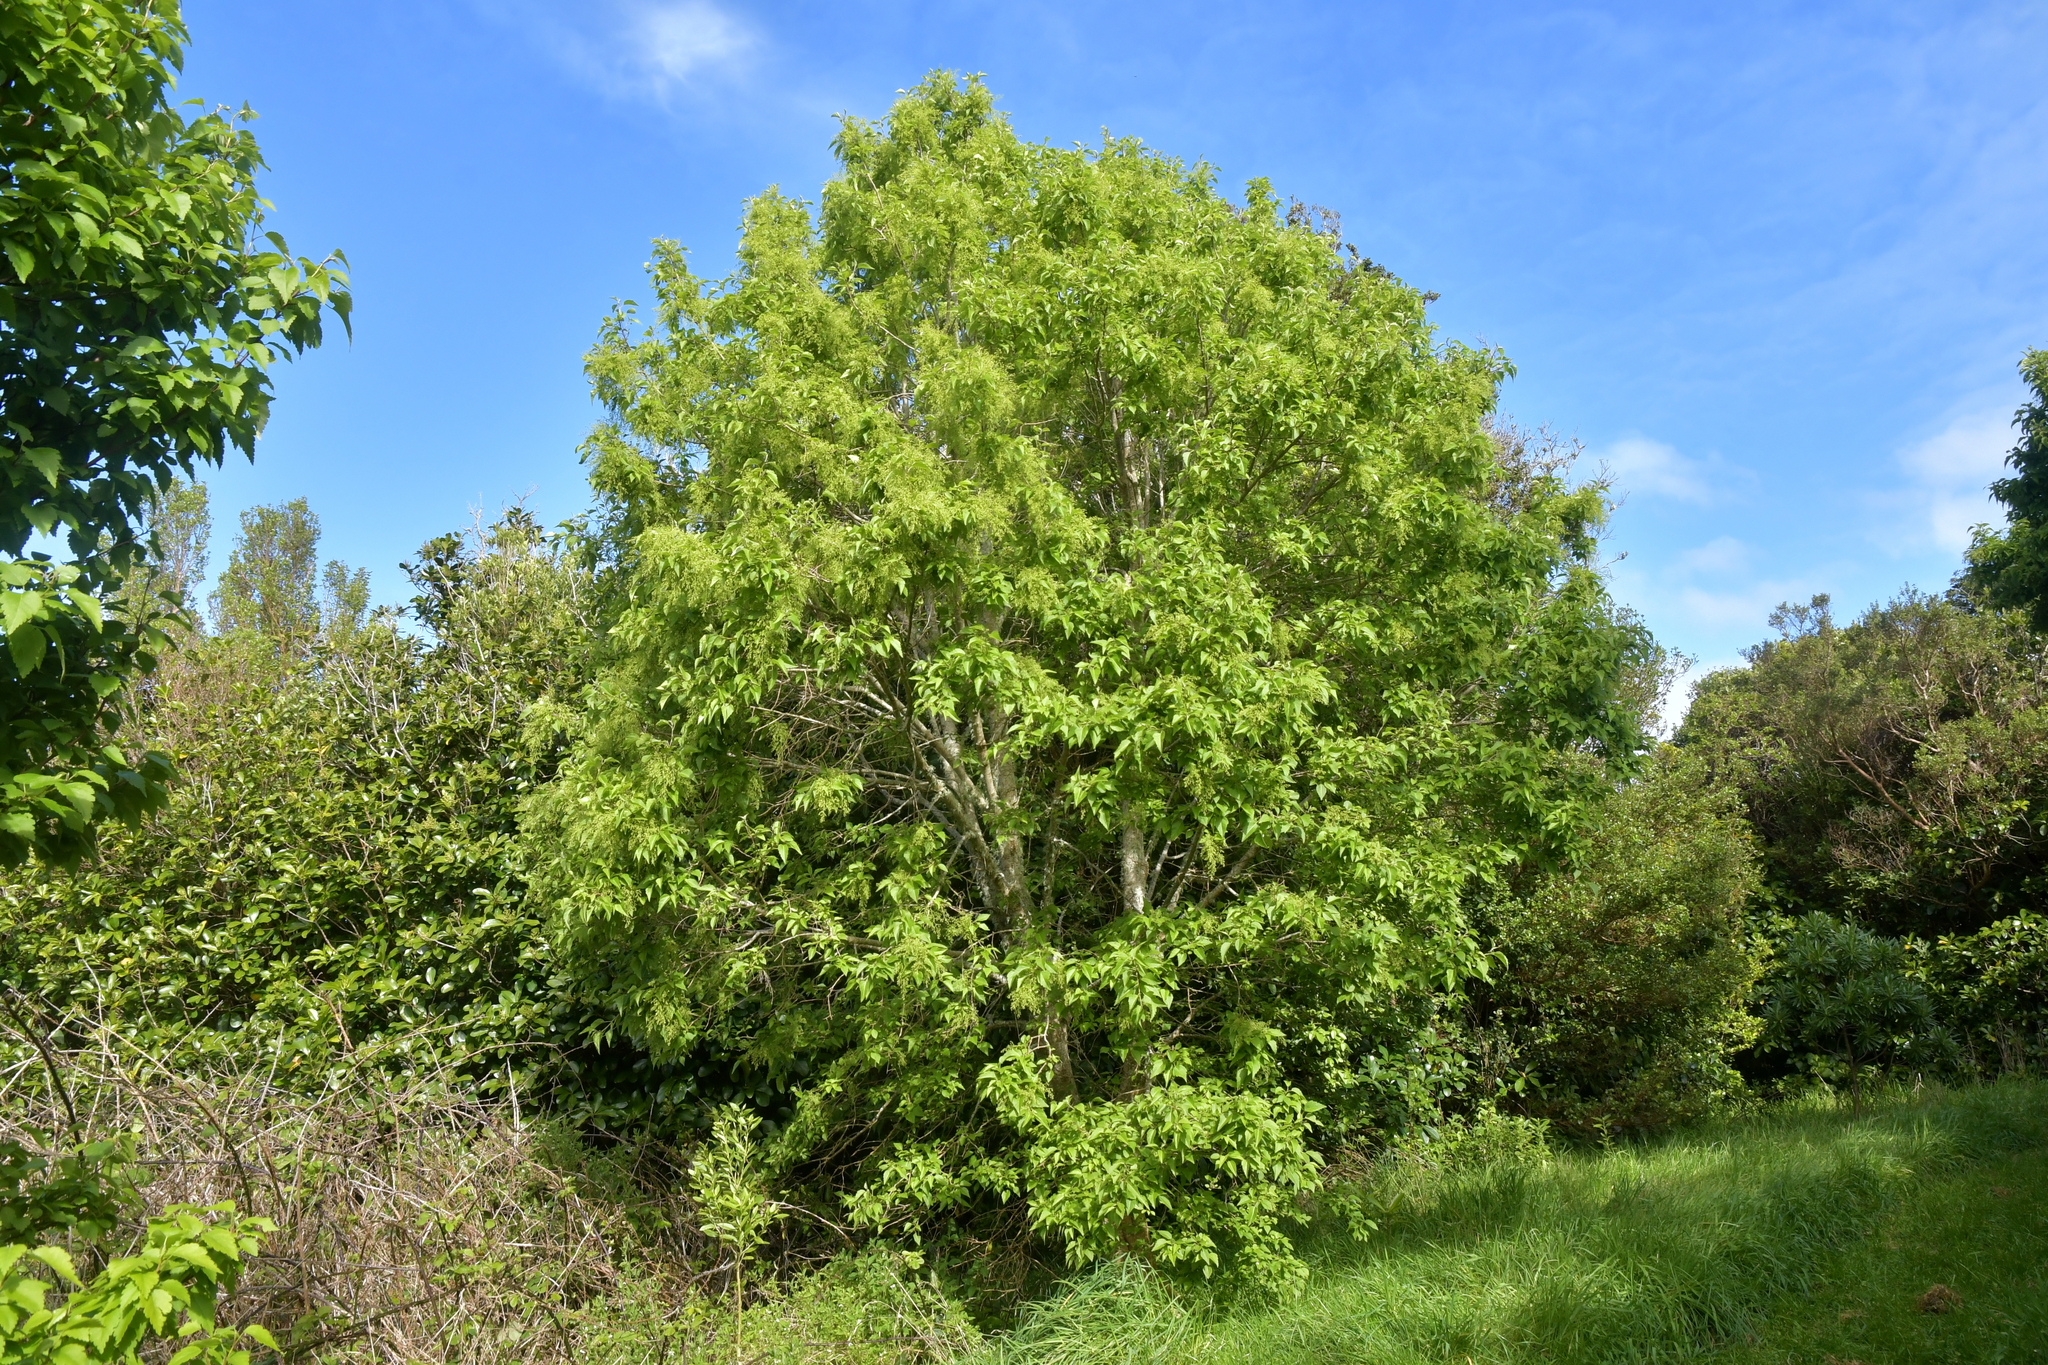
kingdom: Plantae
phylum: Tracheophyta
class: Magnoliopsida
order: Malvales
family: Malvaceae
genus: Plagianthus
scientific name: Plagianthus regius
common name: Manatu
